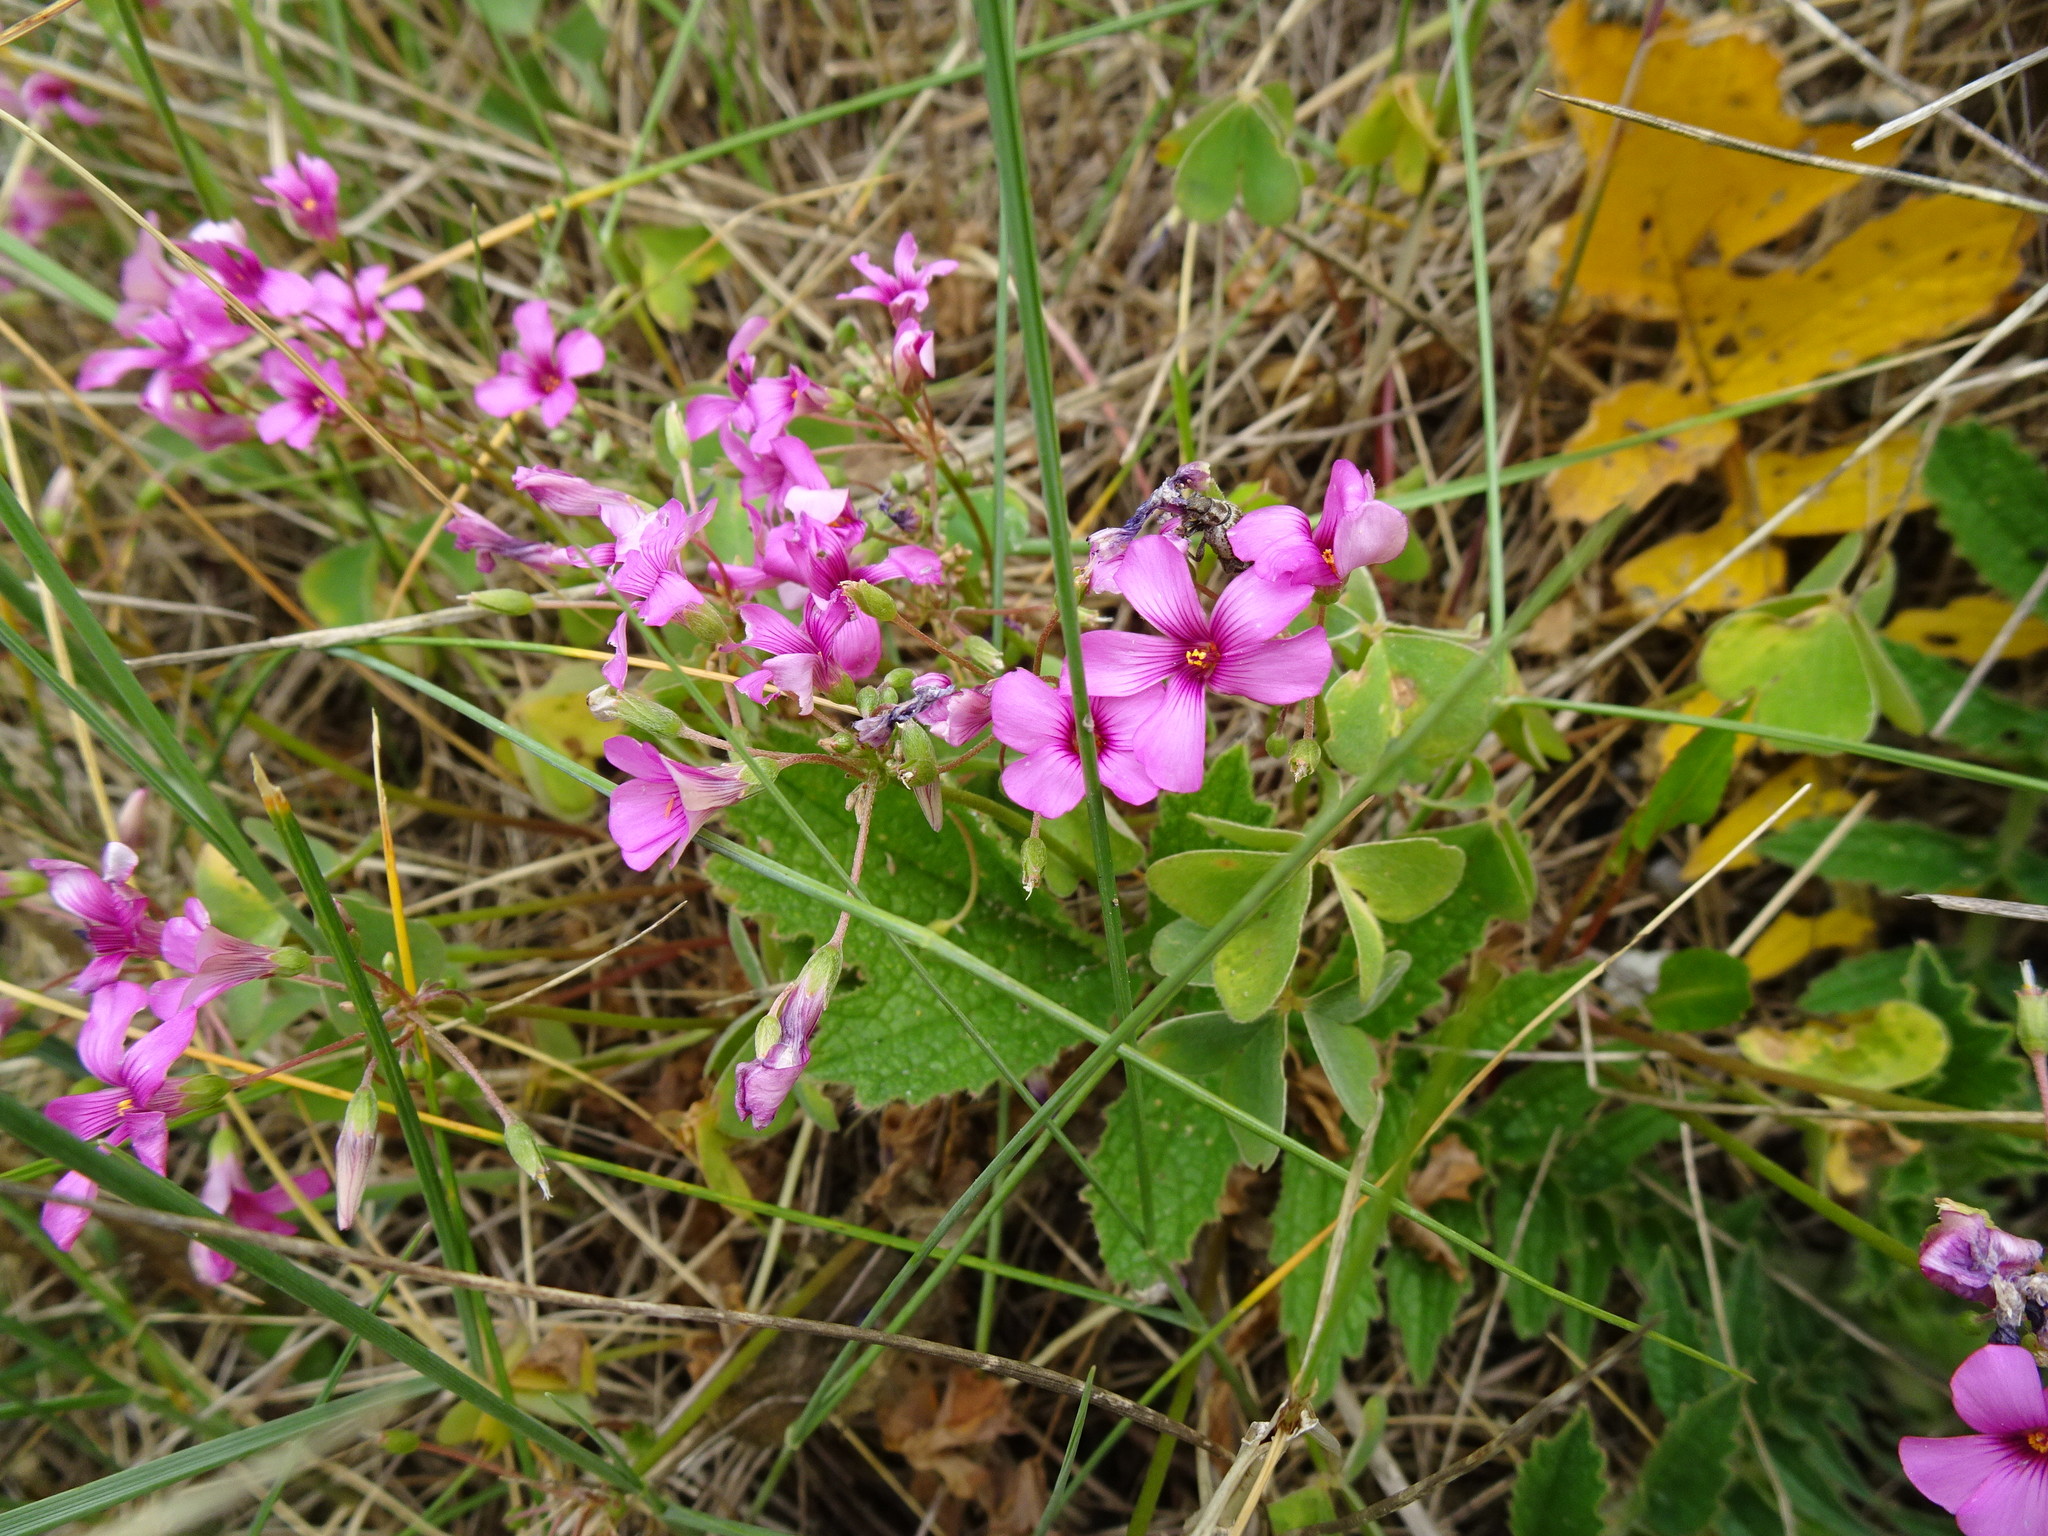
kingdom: Plantae
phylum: Tracheophyta
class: Magnoliopsida
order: Oxalidales
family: Oxalidaceae
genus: Oxalis
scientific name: Oxalis articulata
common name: Pink-sorrel
